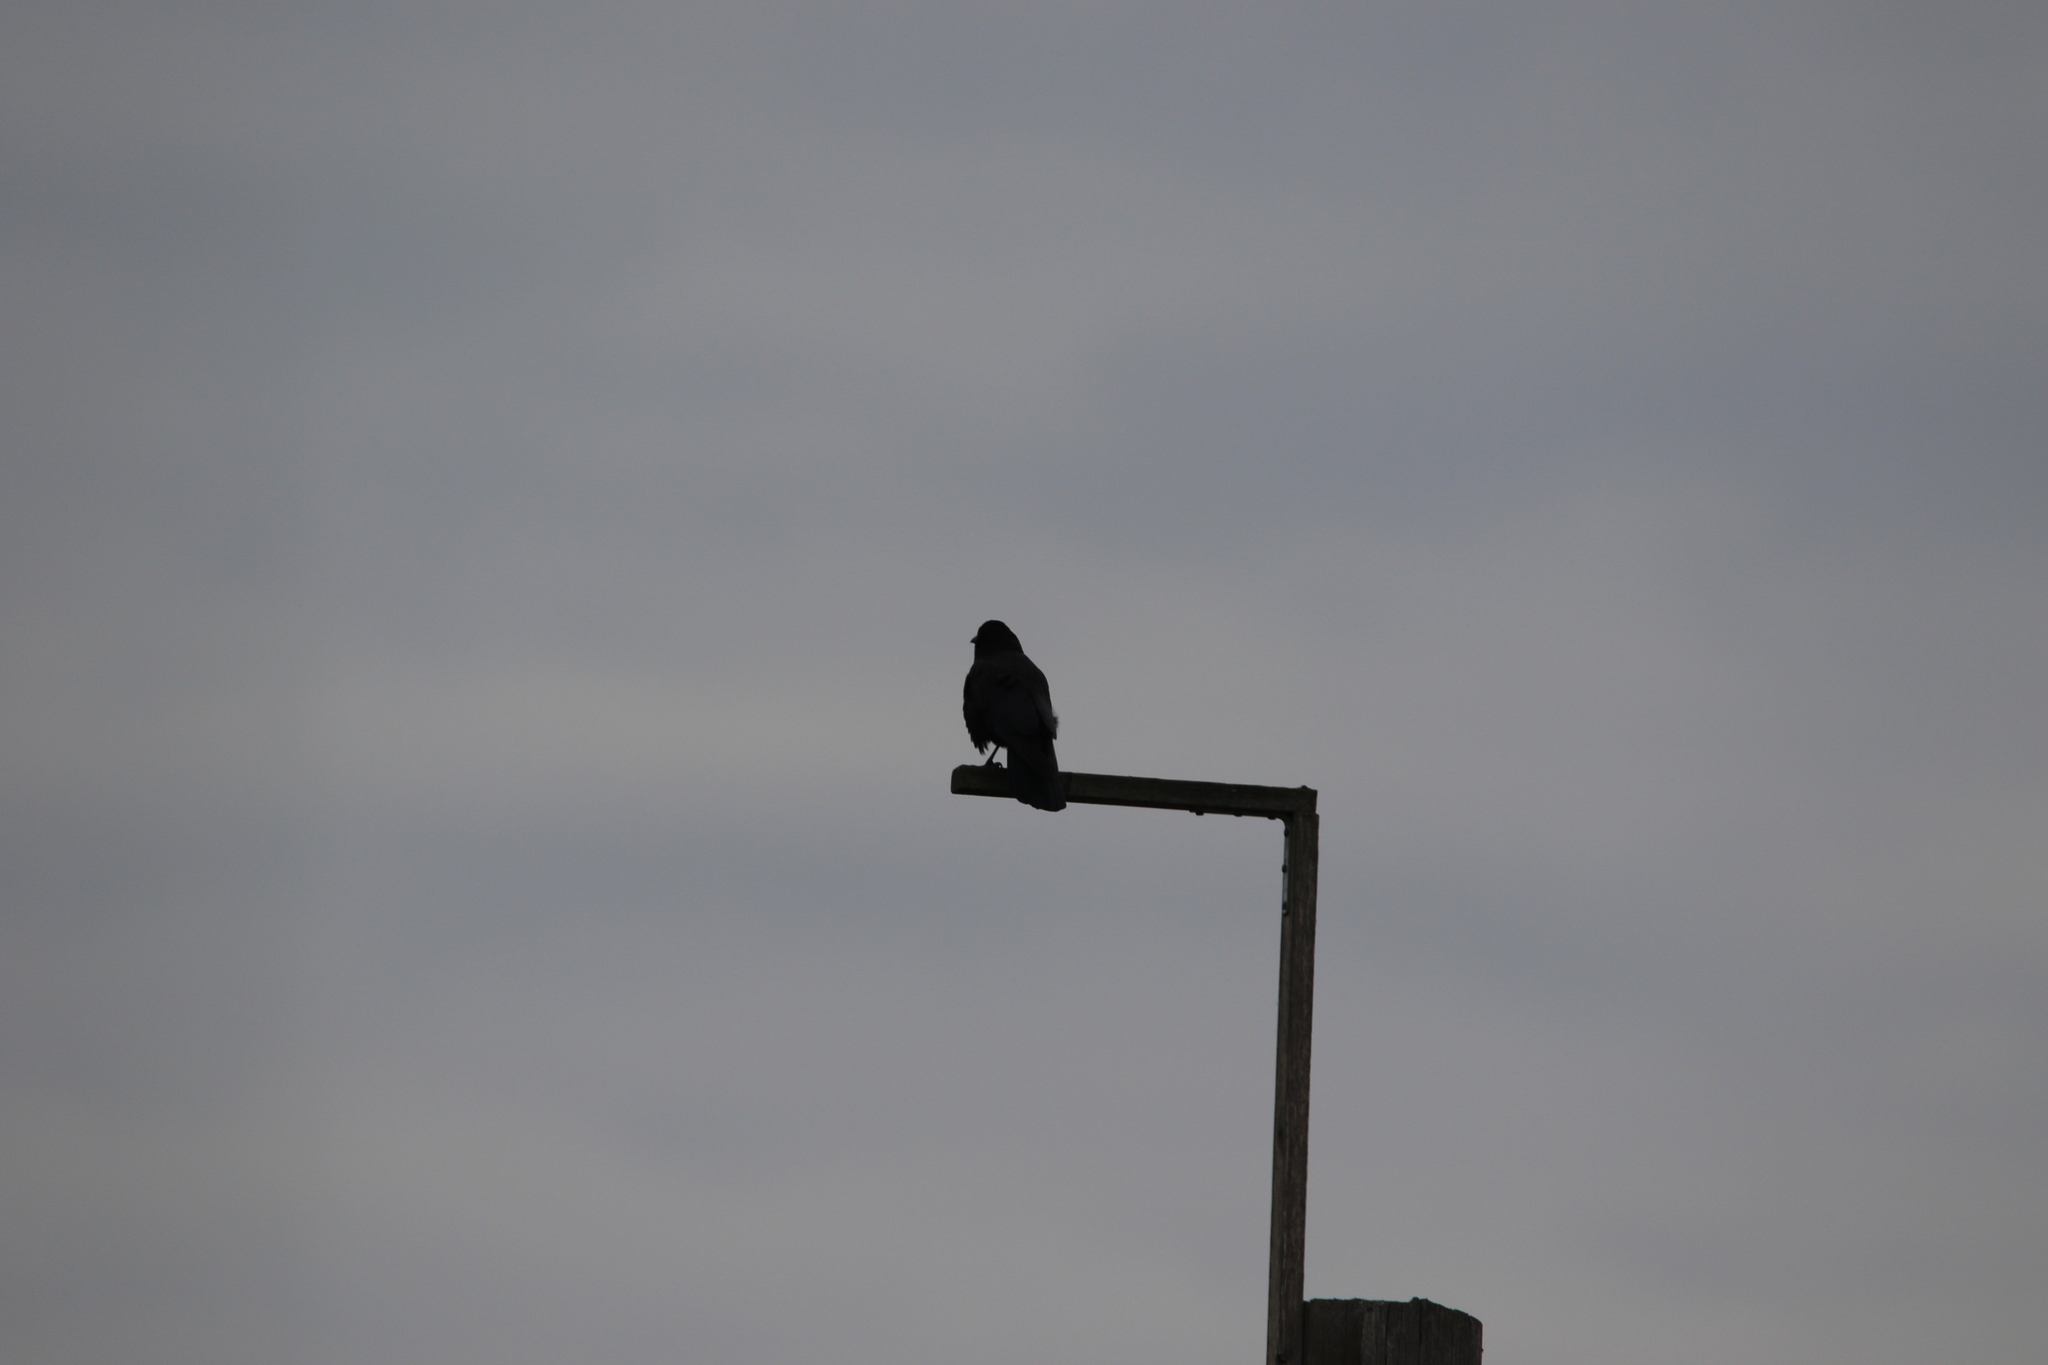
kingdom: Animalia
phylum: Chordata
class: Aves
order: Passeriformes
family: Corvidae
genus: Corvus
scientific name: Corvus brachyrhynchos
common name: American crow
